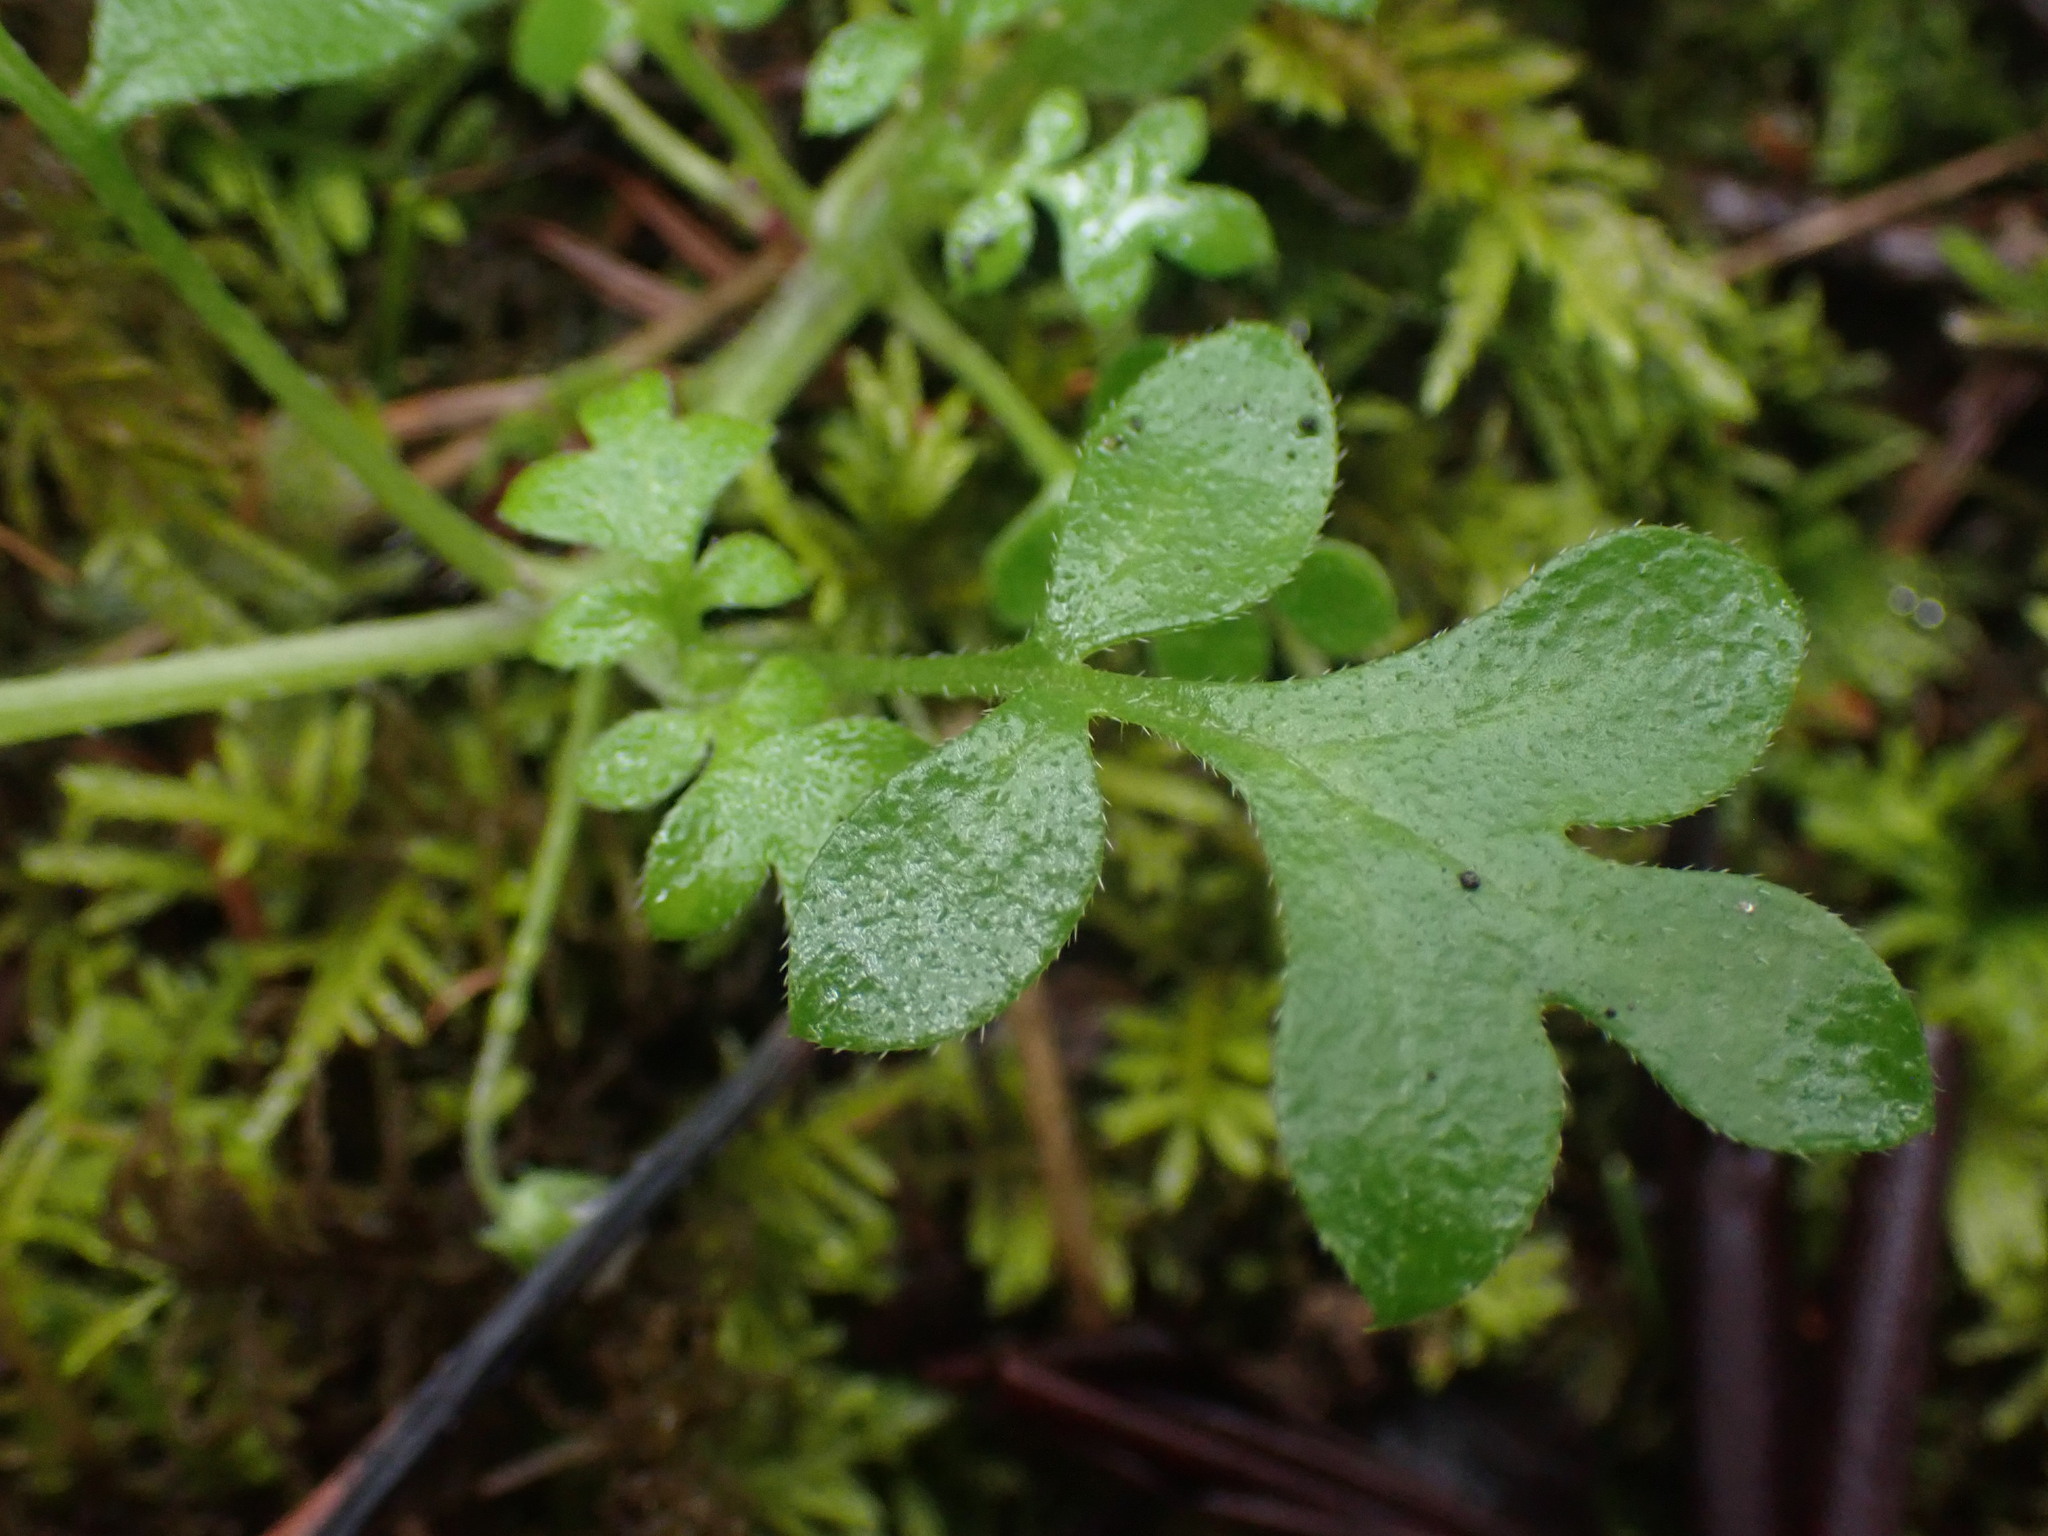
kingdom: Plantae
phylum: Tracheophyta
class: Magnoliopsida
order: Boraginales
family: Hydrophyllaceae
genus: Nemophila
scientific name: Nemophila parviflora
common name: Small-flowered baby-blue-eyes
